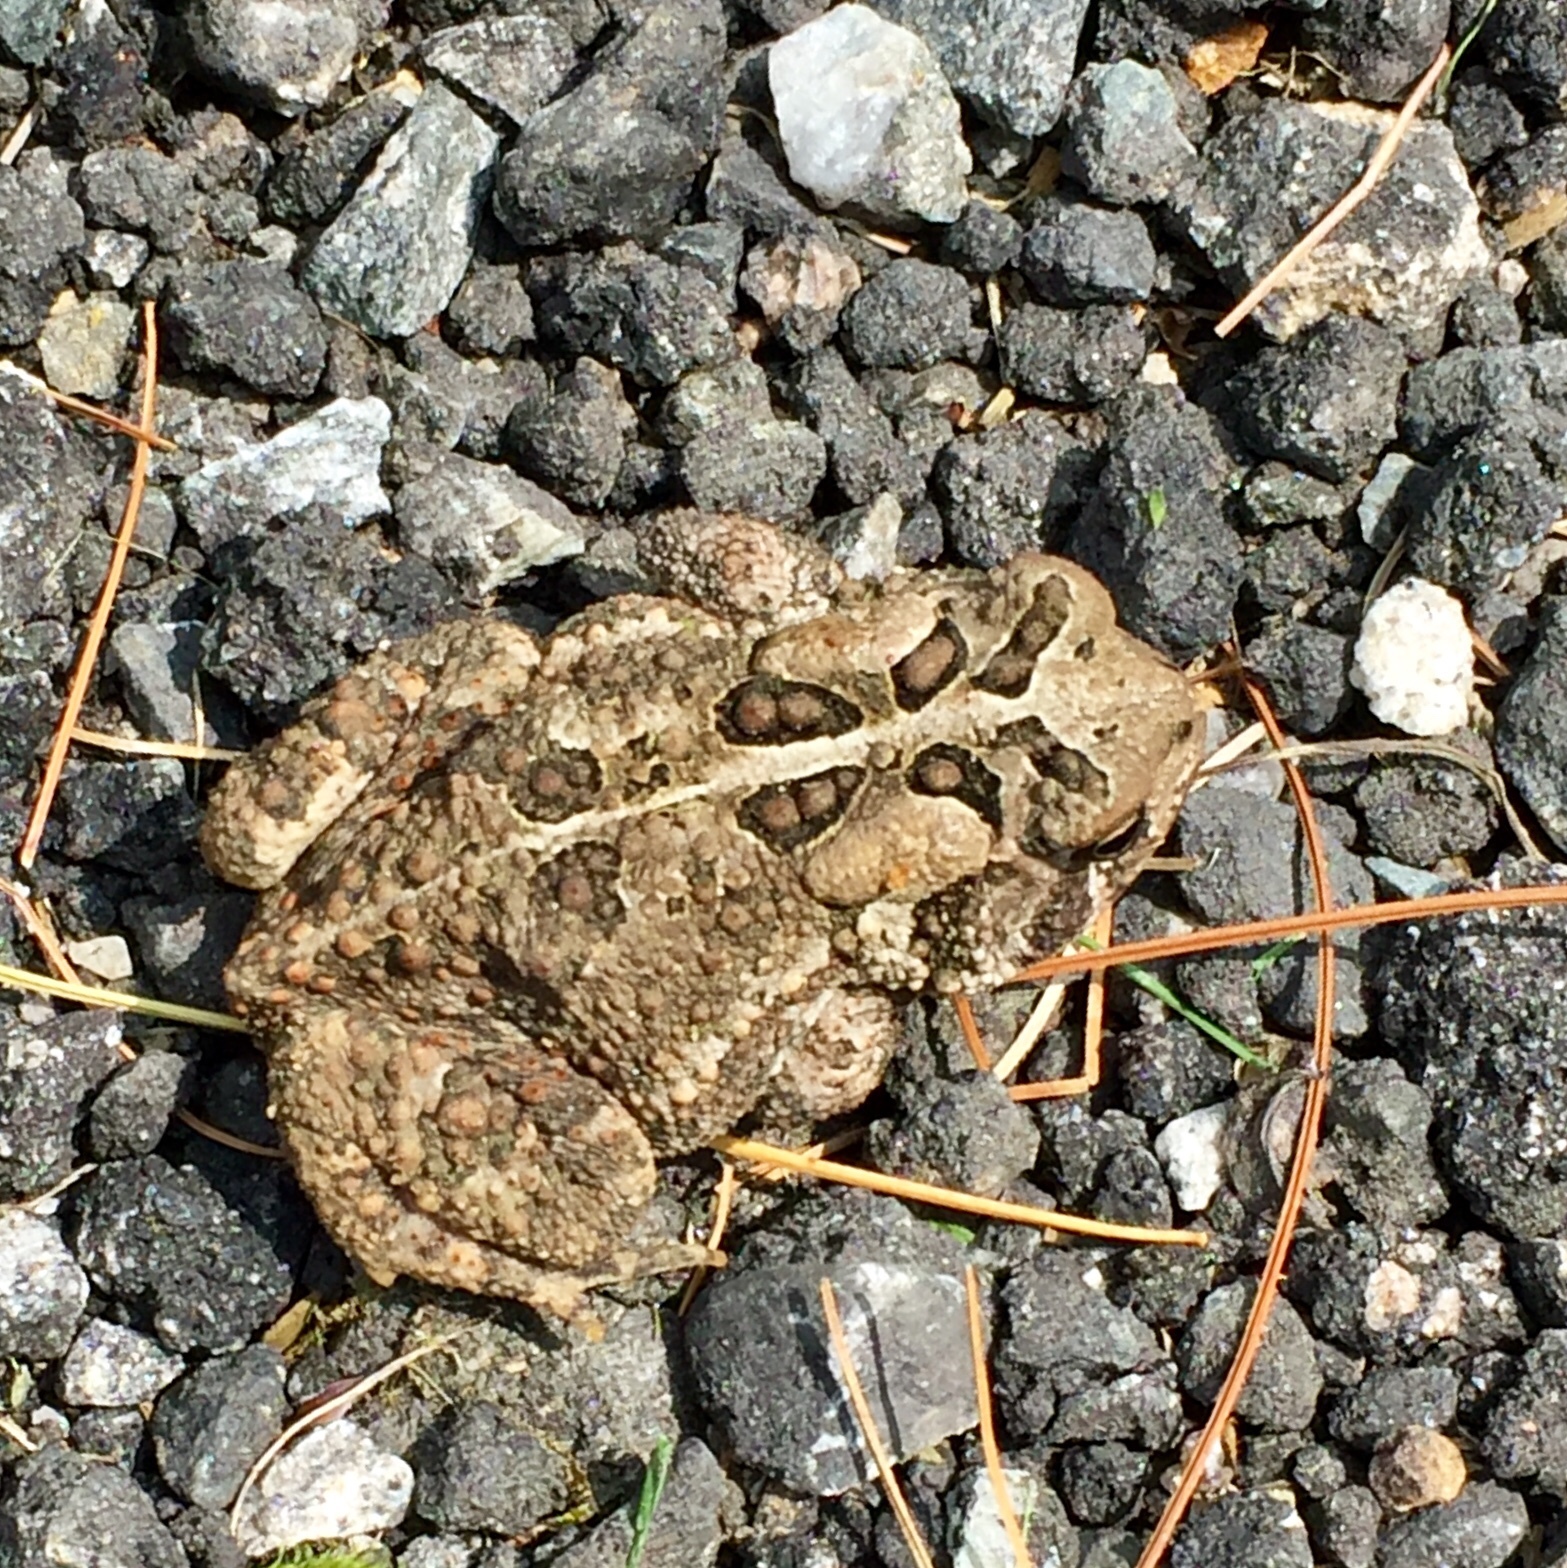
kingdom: Animalia
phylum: Chordata
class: Amphibia
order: Anura
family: Bufonidae
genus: Anaxyrus
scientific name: Anaxyrus americanus
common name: American toad
